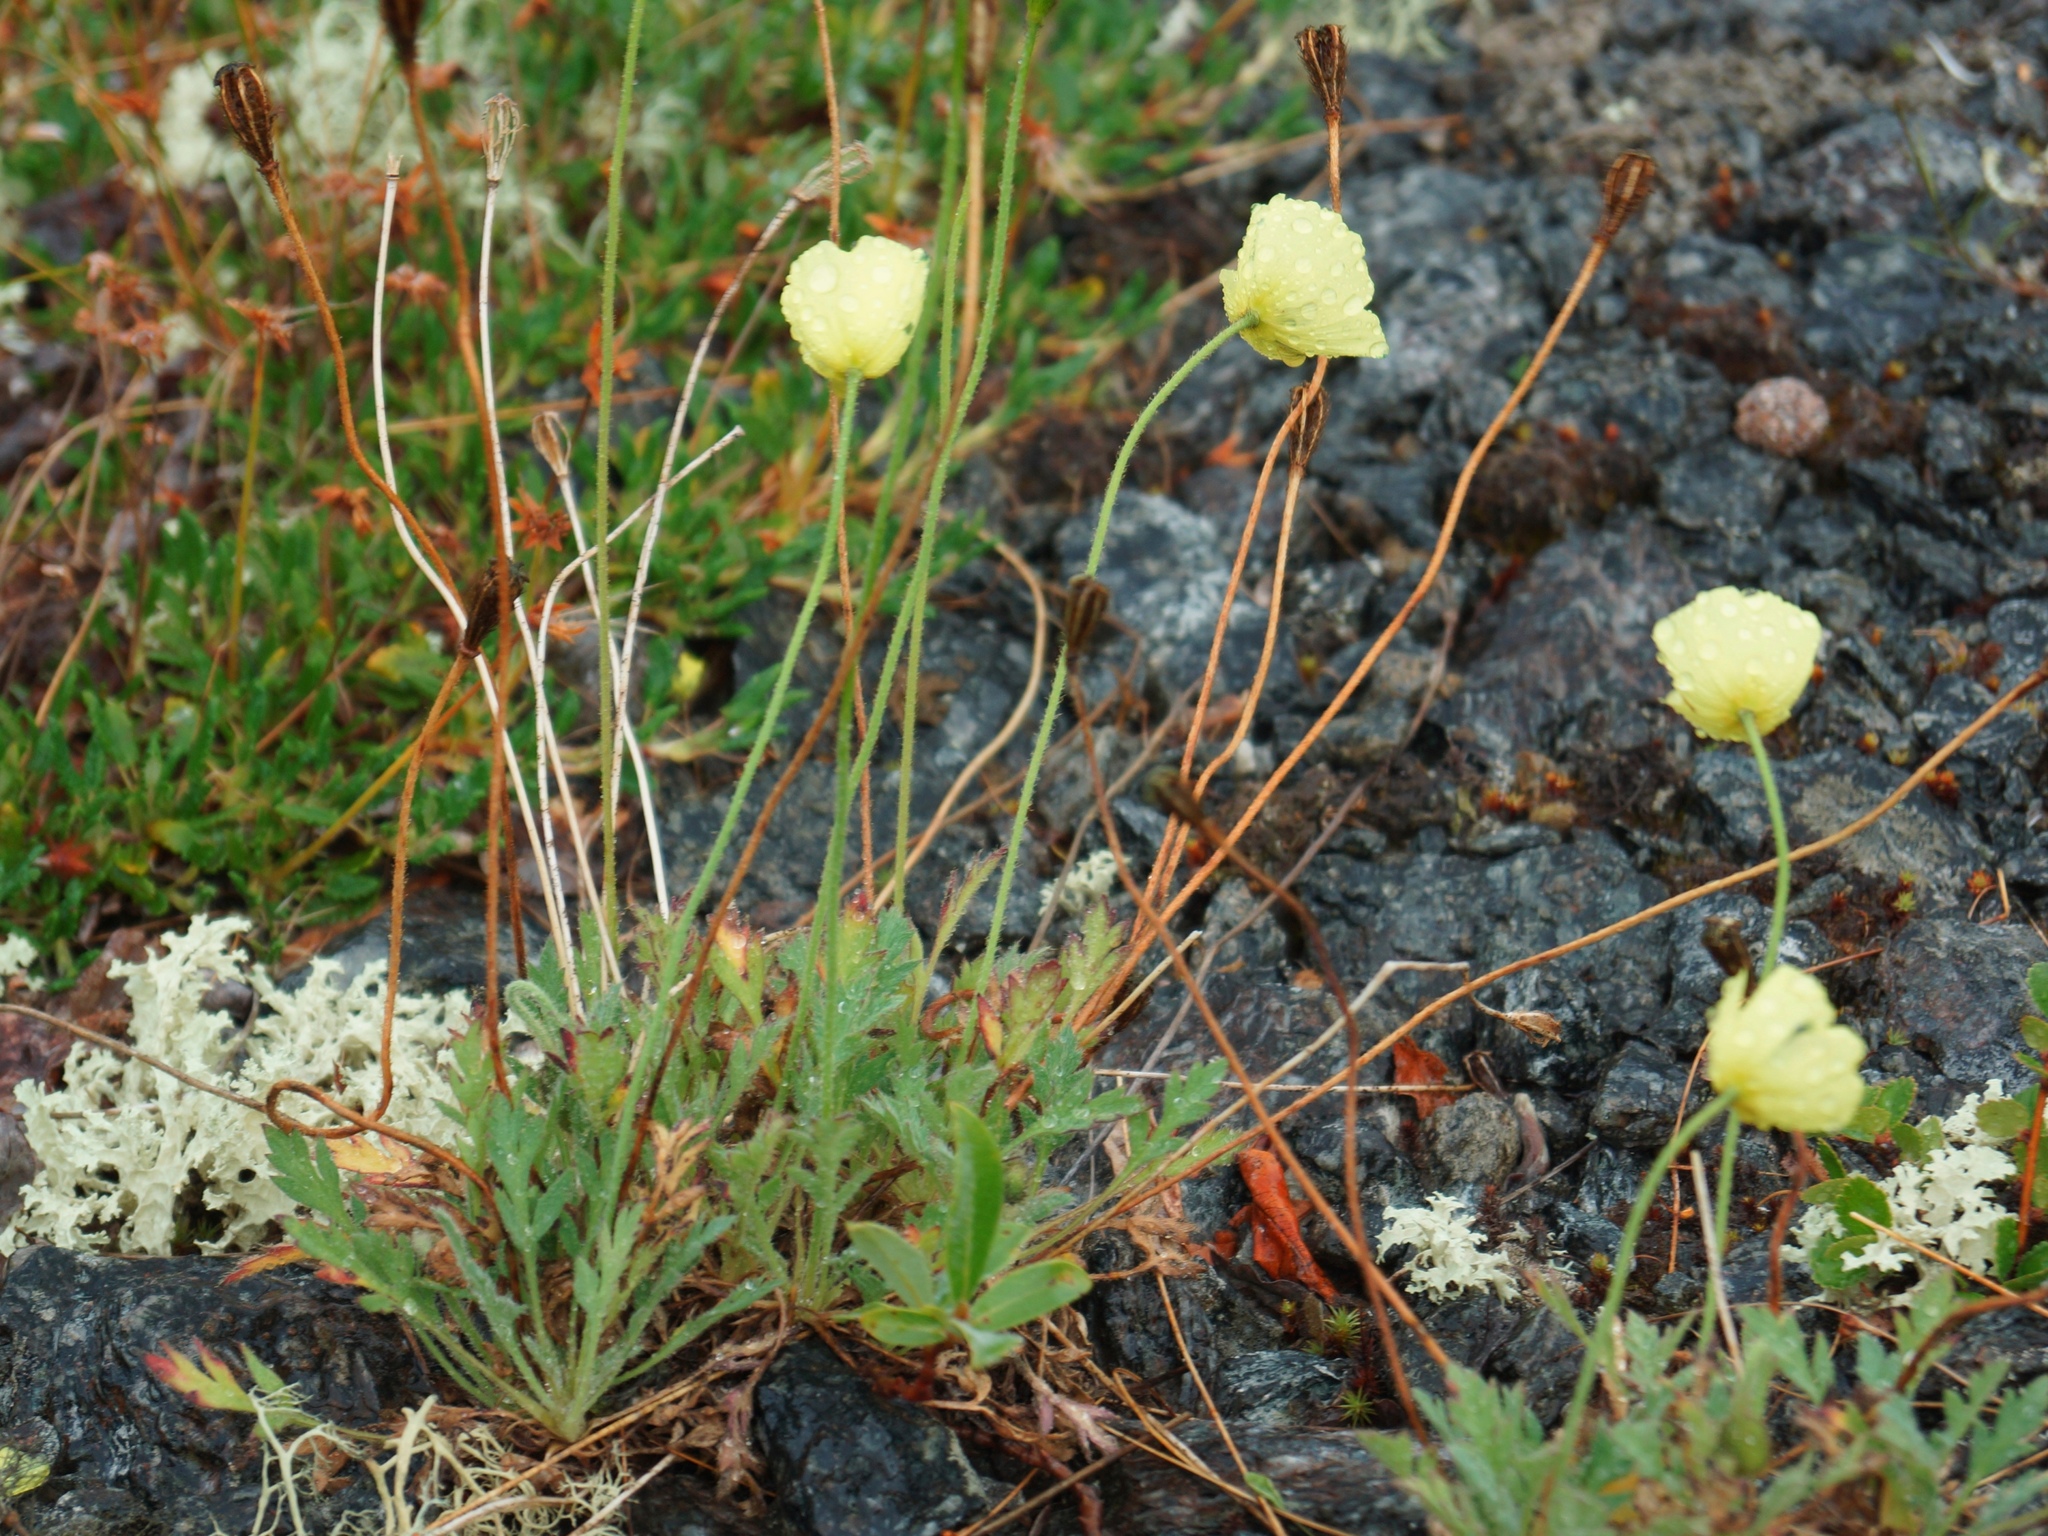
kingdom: Plantae
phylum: Tracheophyta
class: Magnoliopsida
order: Ranunculales
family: Papaveraceae
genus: Papaver
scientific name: Papaver lapponicum
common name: Lapland poppy
